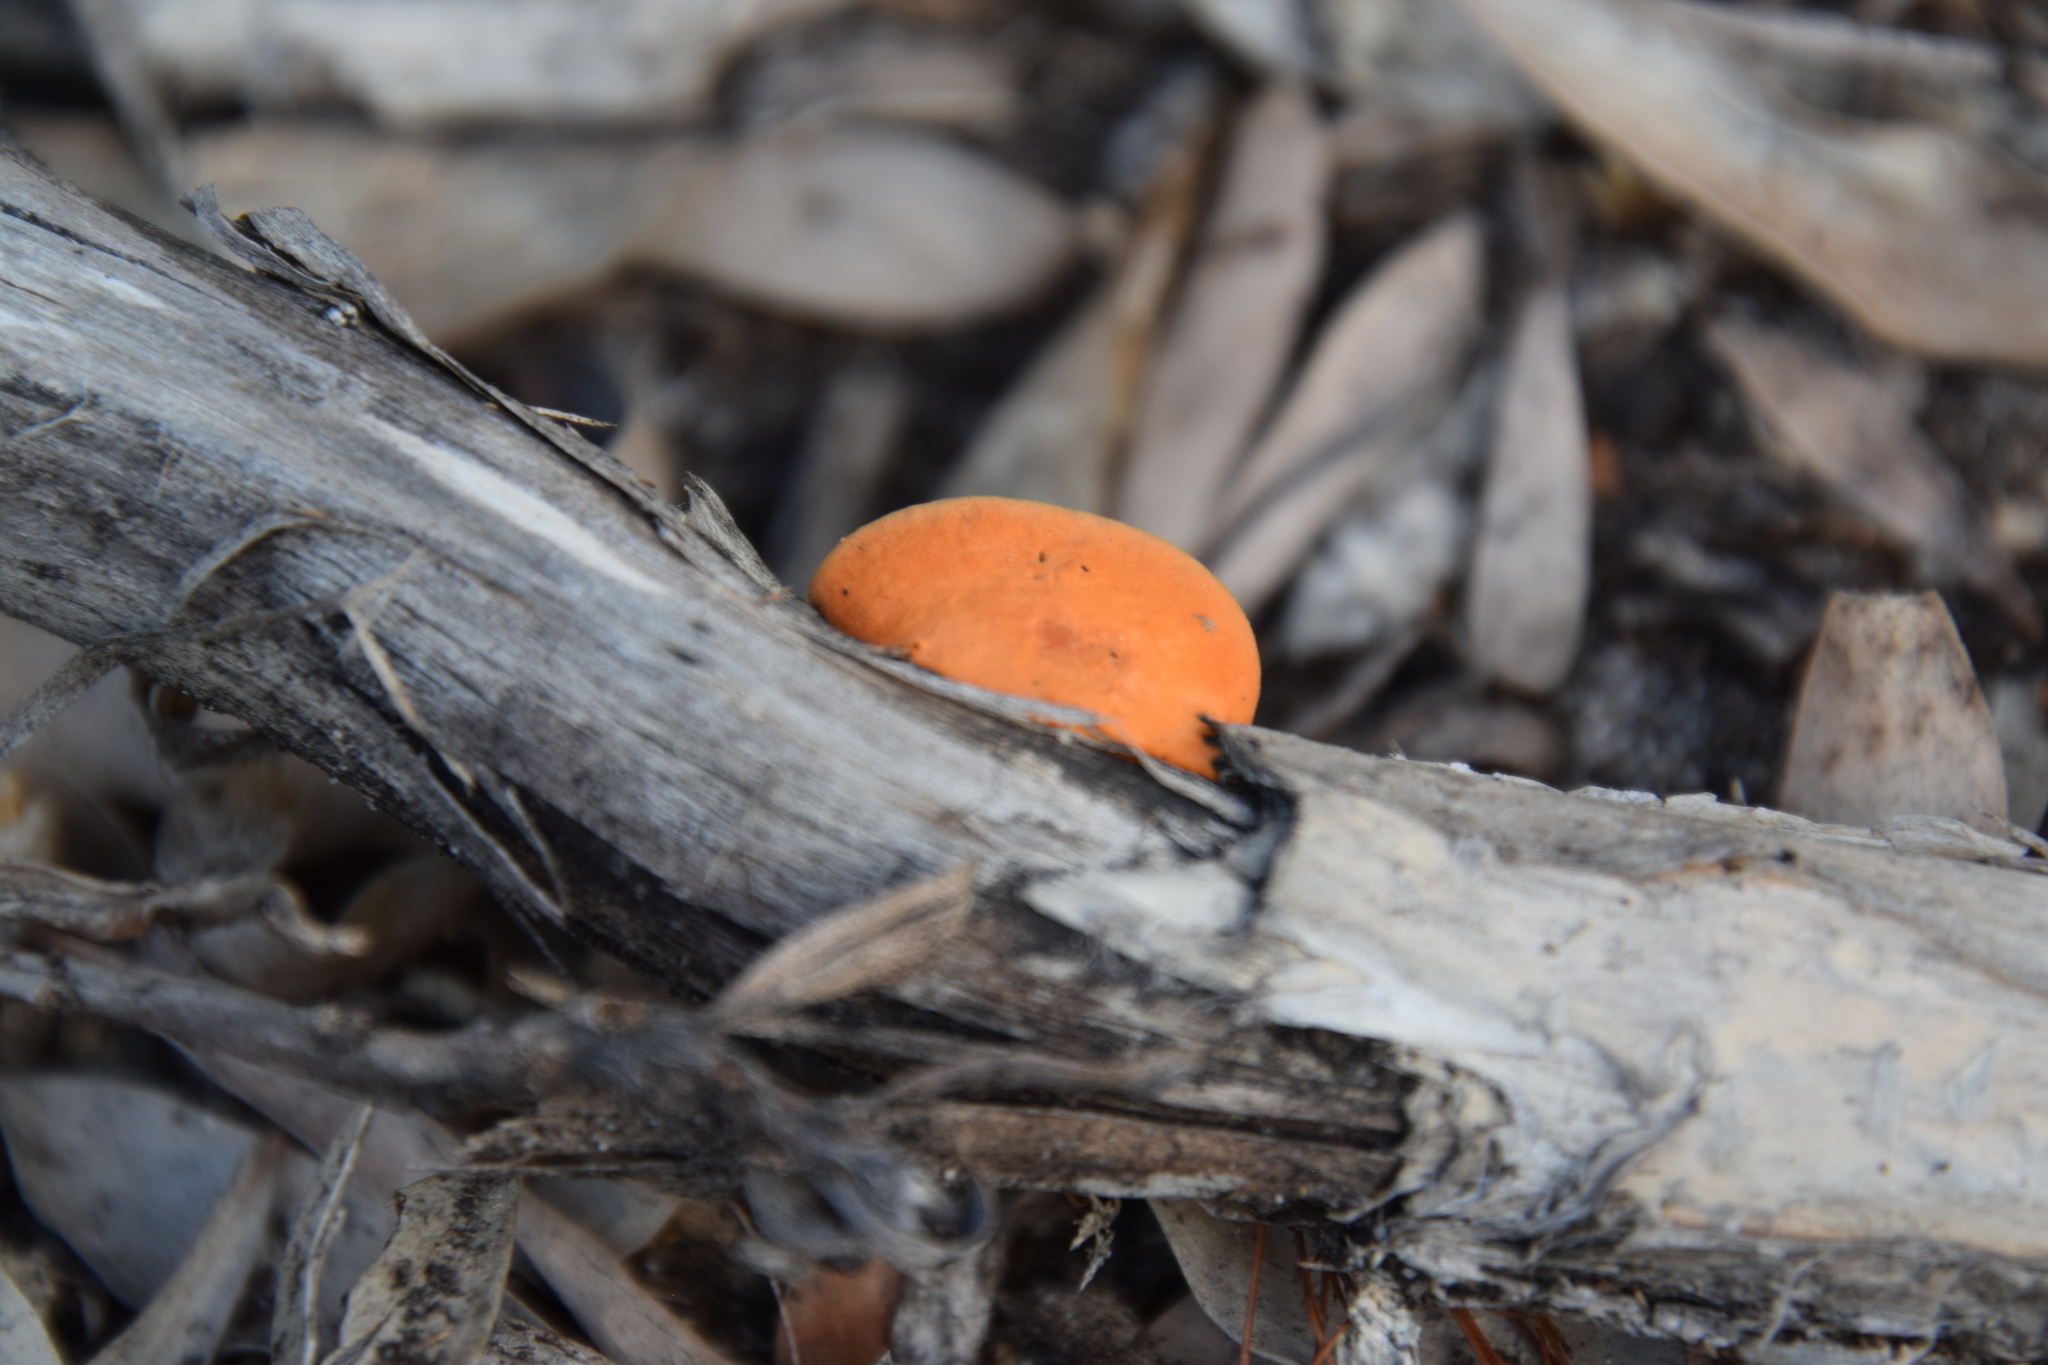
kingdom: Fungi
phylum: Basidiomycota
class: Agaricomycetes
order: Polyporales
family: Polyporaceae
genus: Trametes
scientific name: Trametes coccinea
